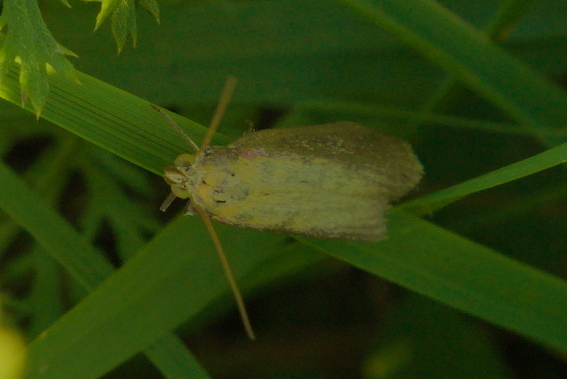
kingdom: Animalia
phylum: Arthropoda
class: Insecta
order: Lepidoptera
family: Pyralidae
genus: Oncocera
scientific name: Oncocera semirubella
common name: Rosy-striped knot-horn
